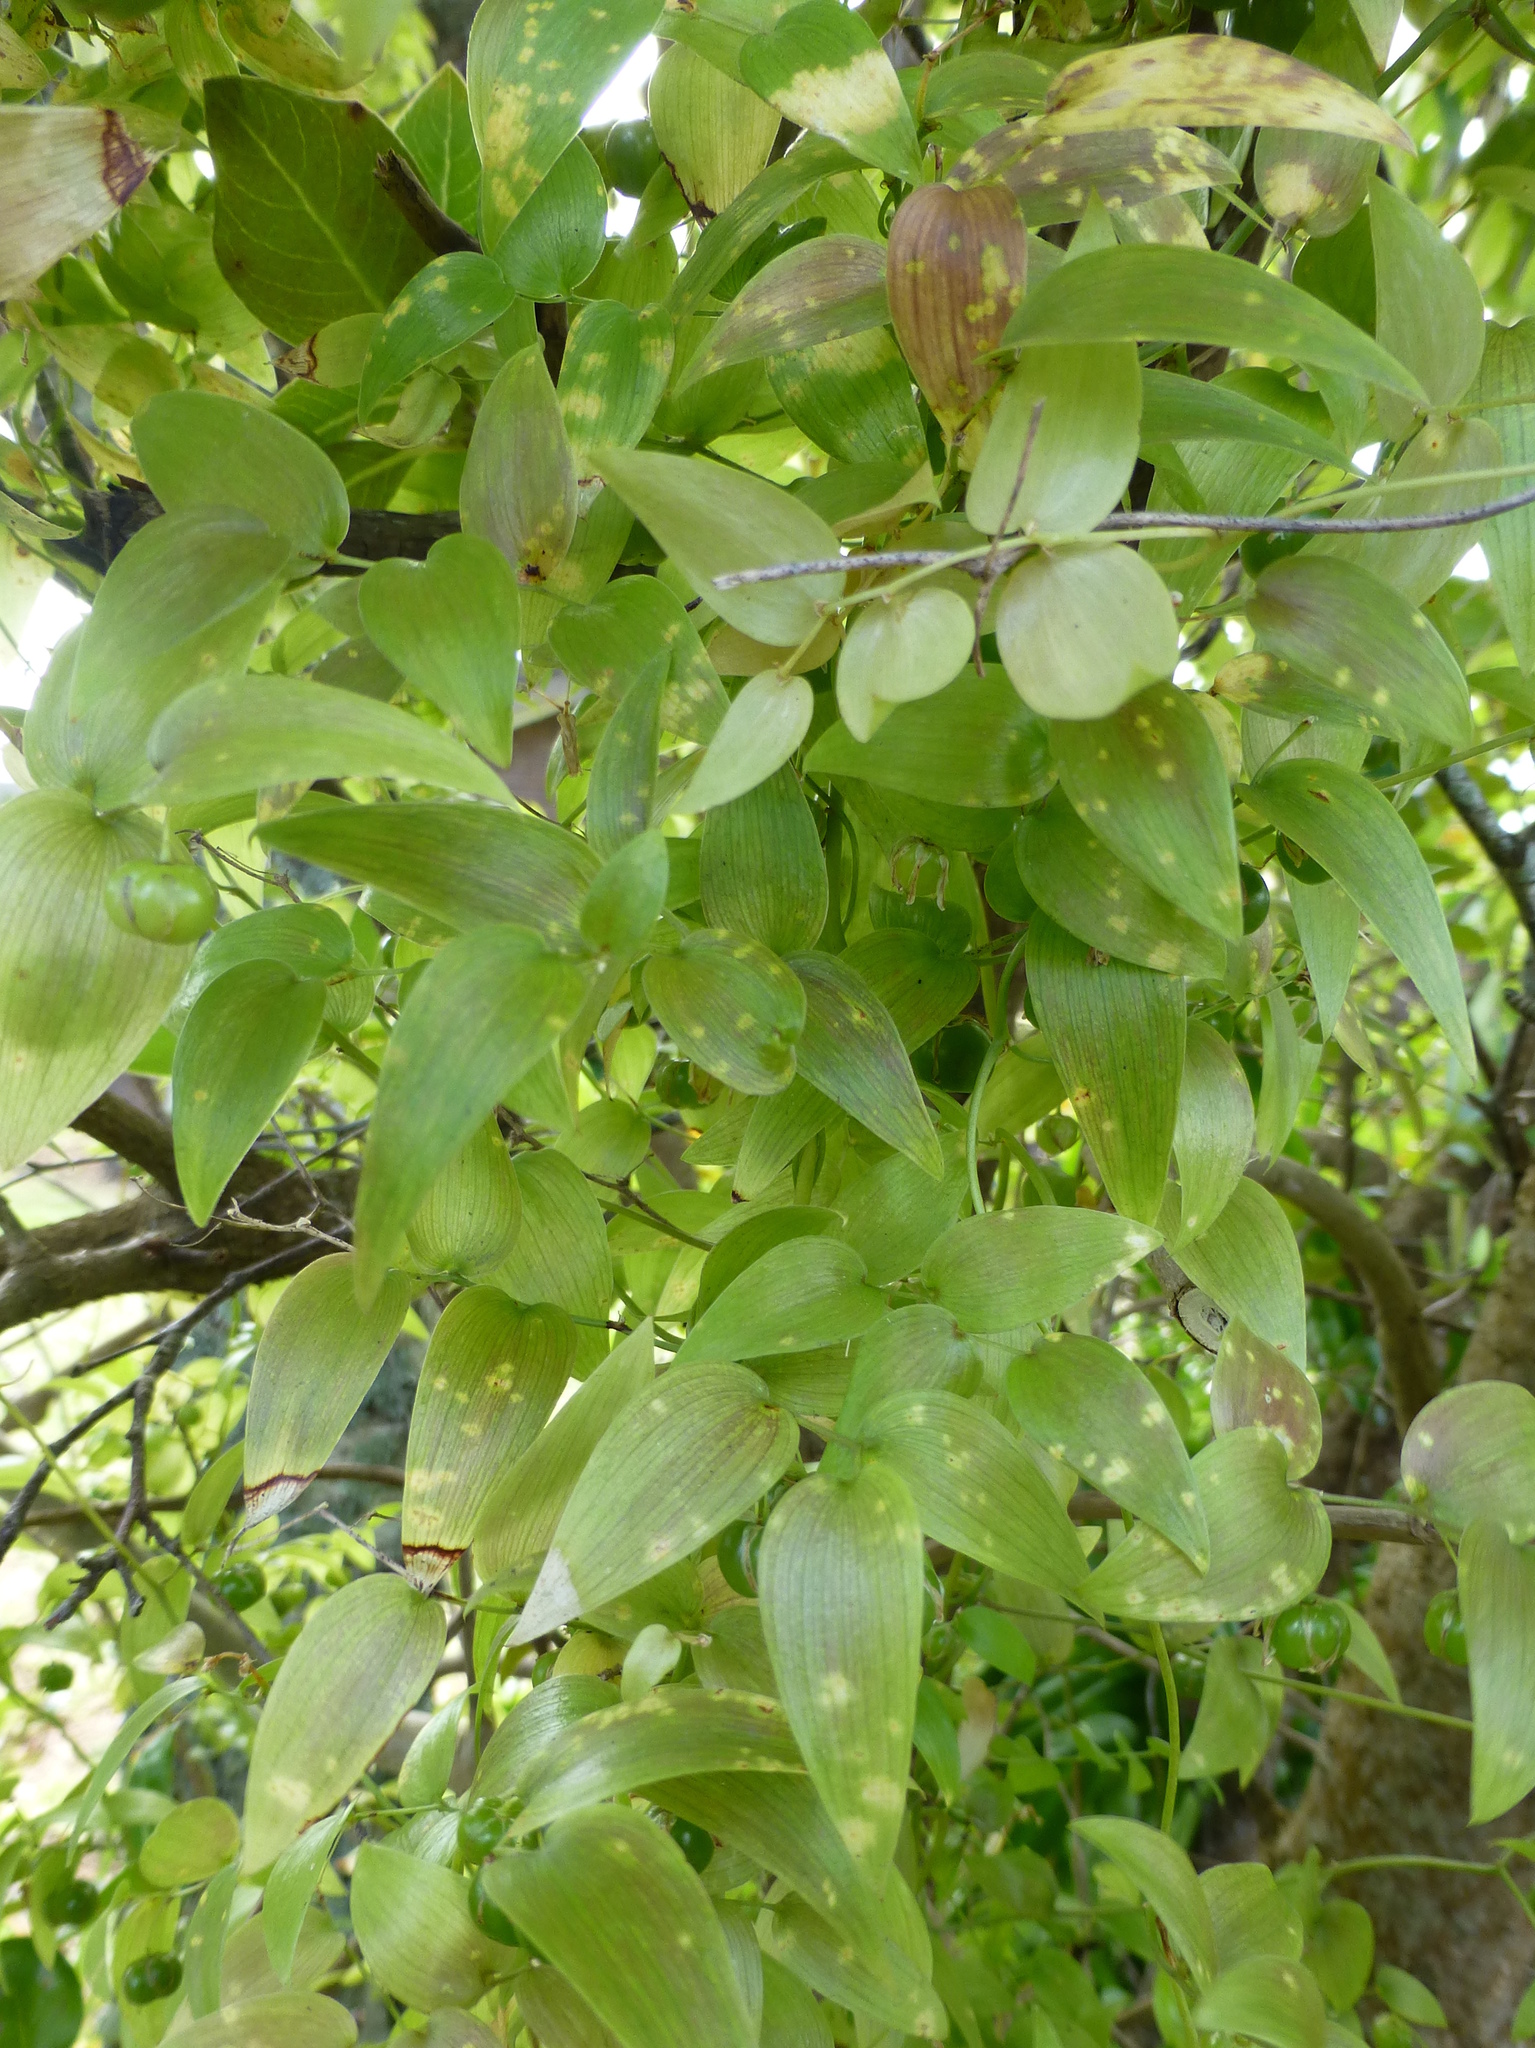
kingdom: Plantae
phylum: Tracheophyta
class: Liliopsida
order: Asparagales
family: Asparagaceae
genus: Asparagus
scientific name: Asparagus asparagoides
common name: African asparagus fern
